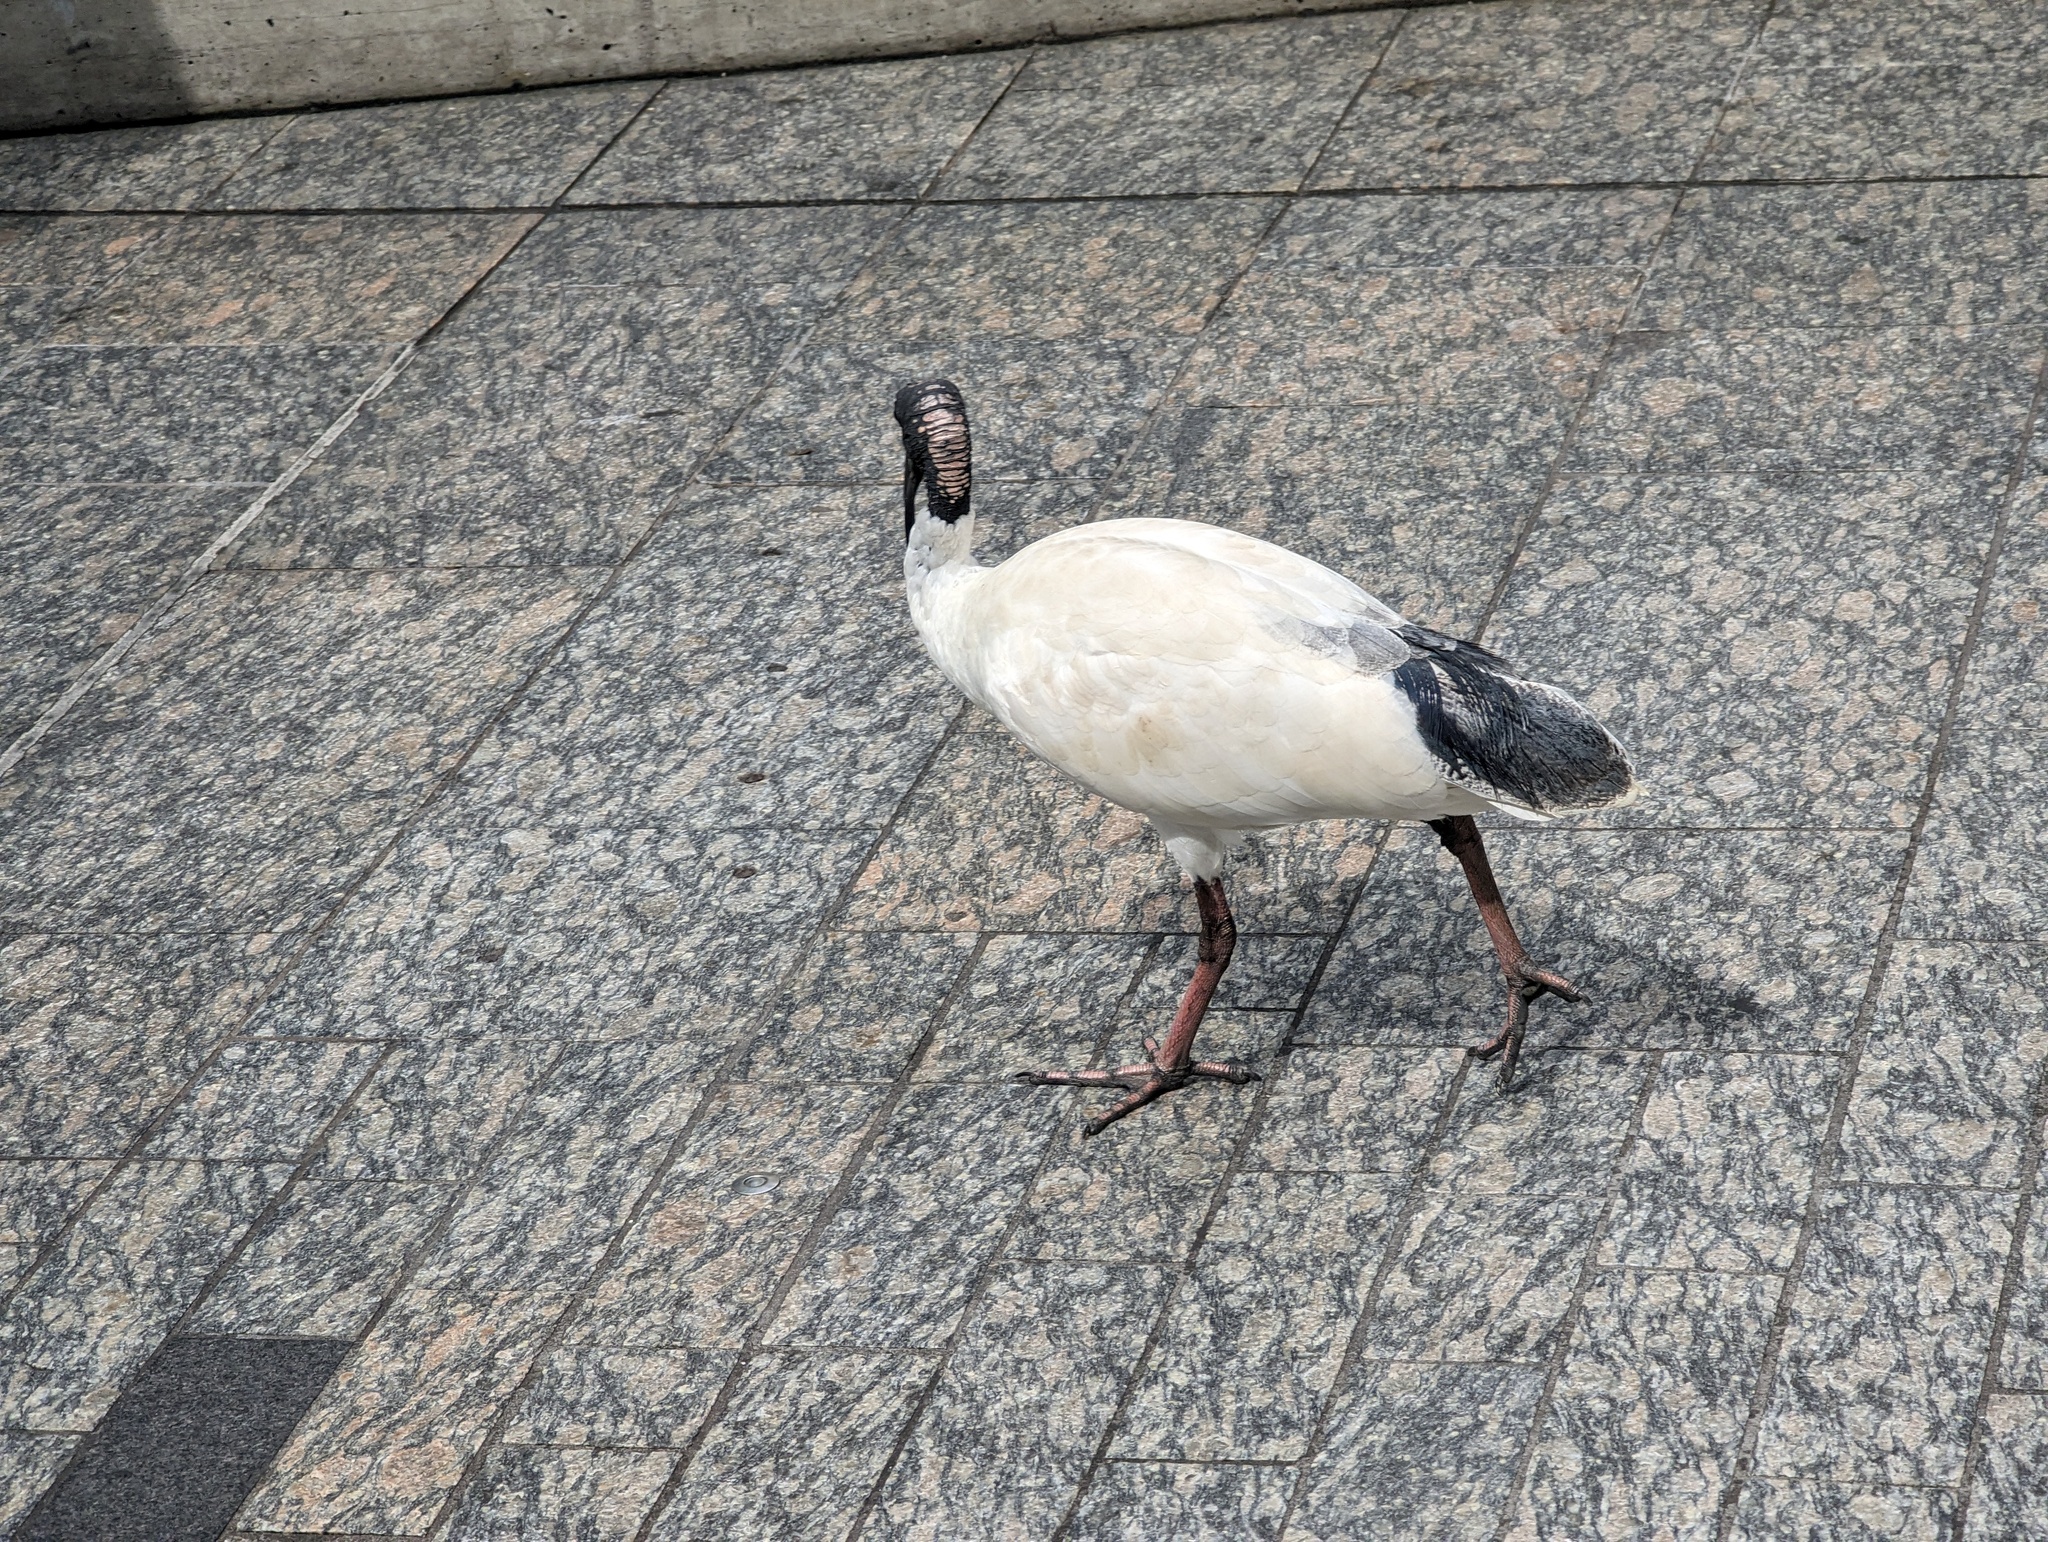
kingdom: Animalia
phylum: Chordata
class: Aves
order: Pelecaniformes
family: Threskiornithidae
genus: Threskiornis
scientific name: Threskiornis molucca
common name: Australian white ibis
